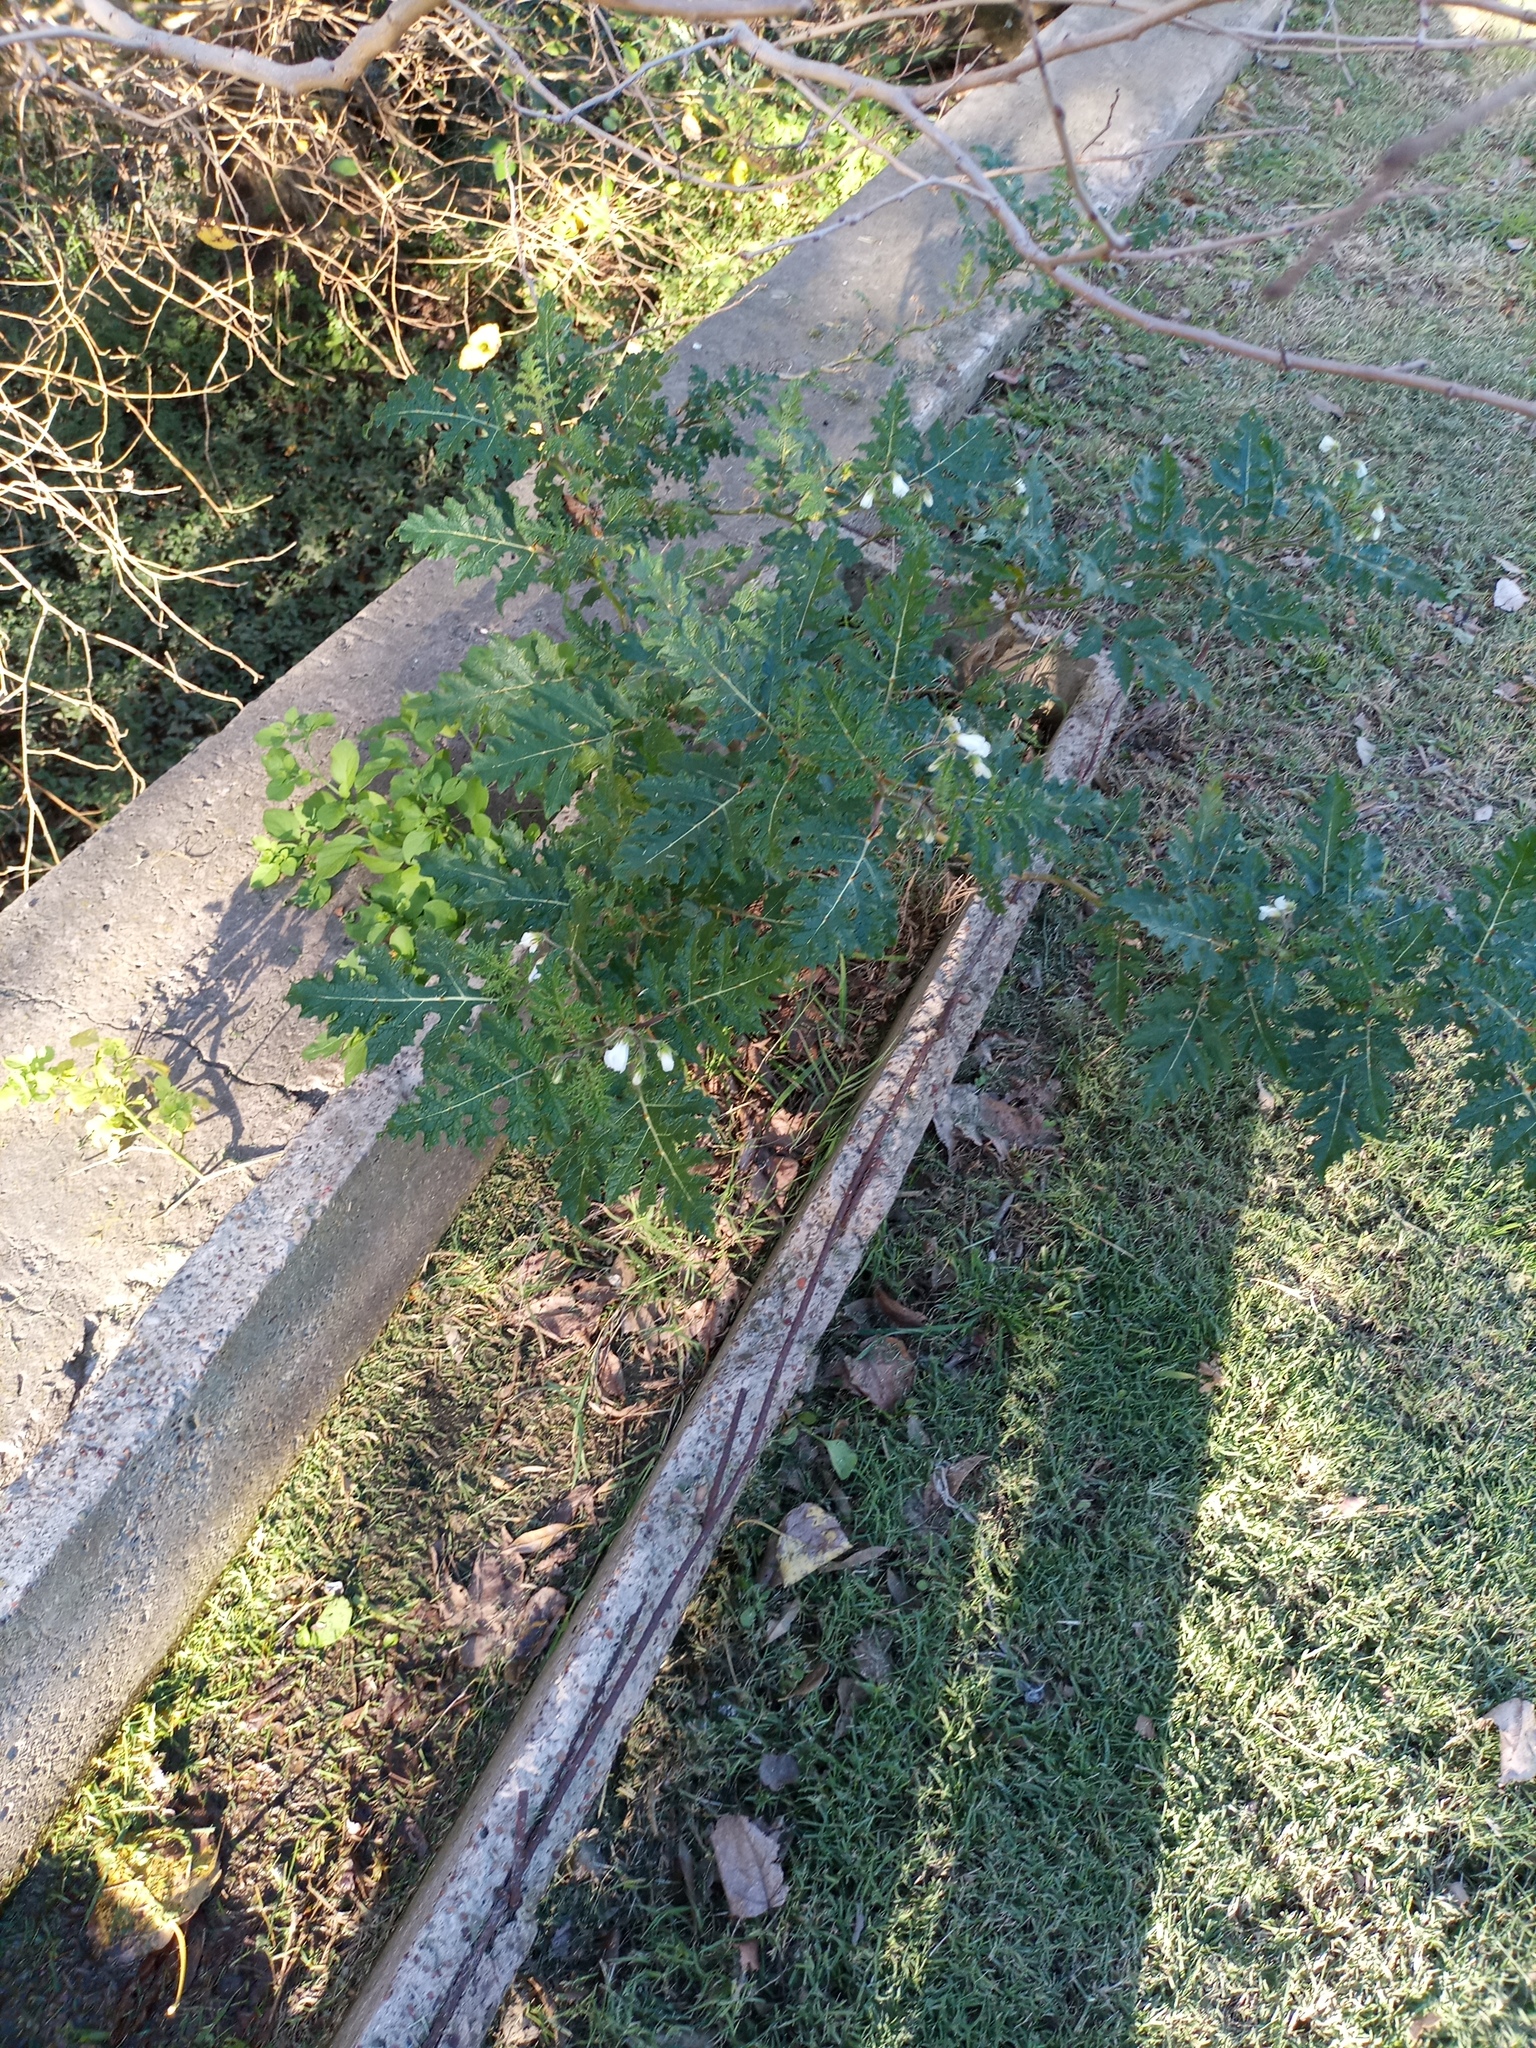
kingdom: Plantae
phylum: Tracheophyta
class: Magnoliopsida
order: Solanales
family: Solanaceae
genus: Solanum
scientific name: Solanum sisymbriifolium
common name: Red buffalo-bur
